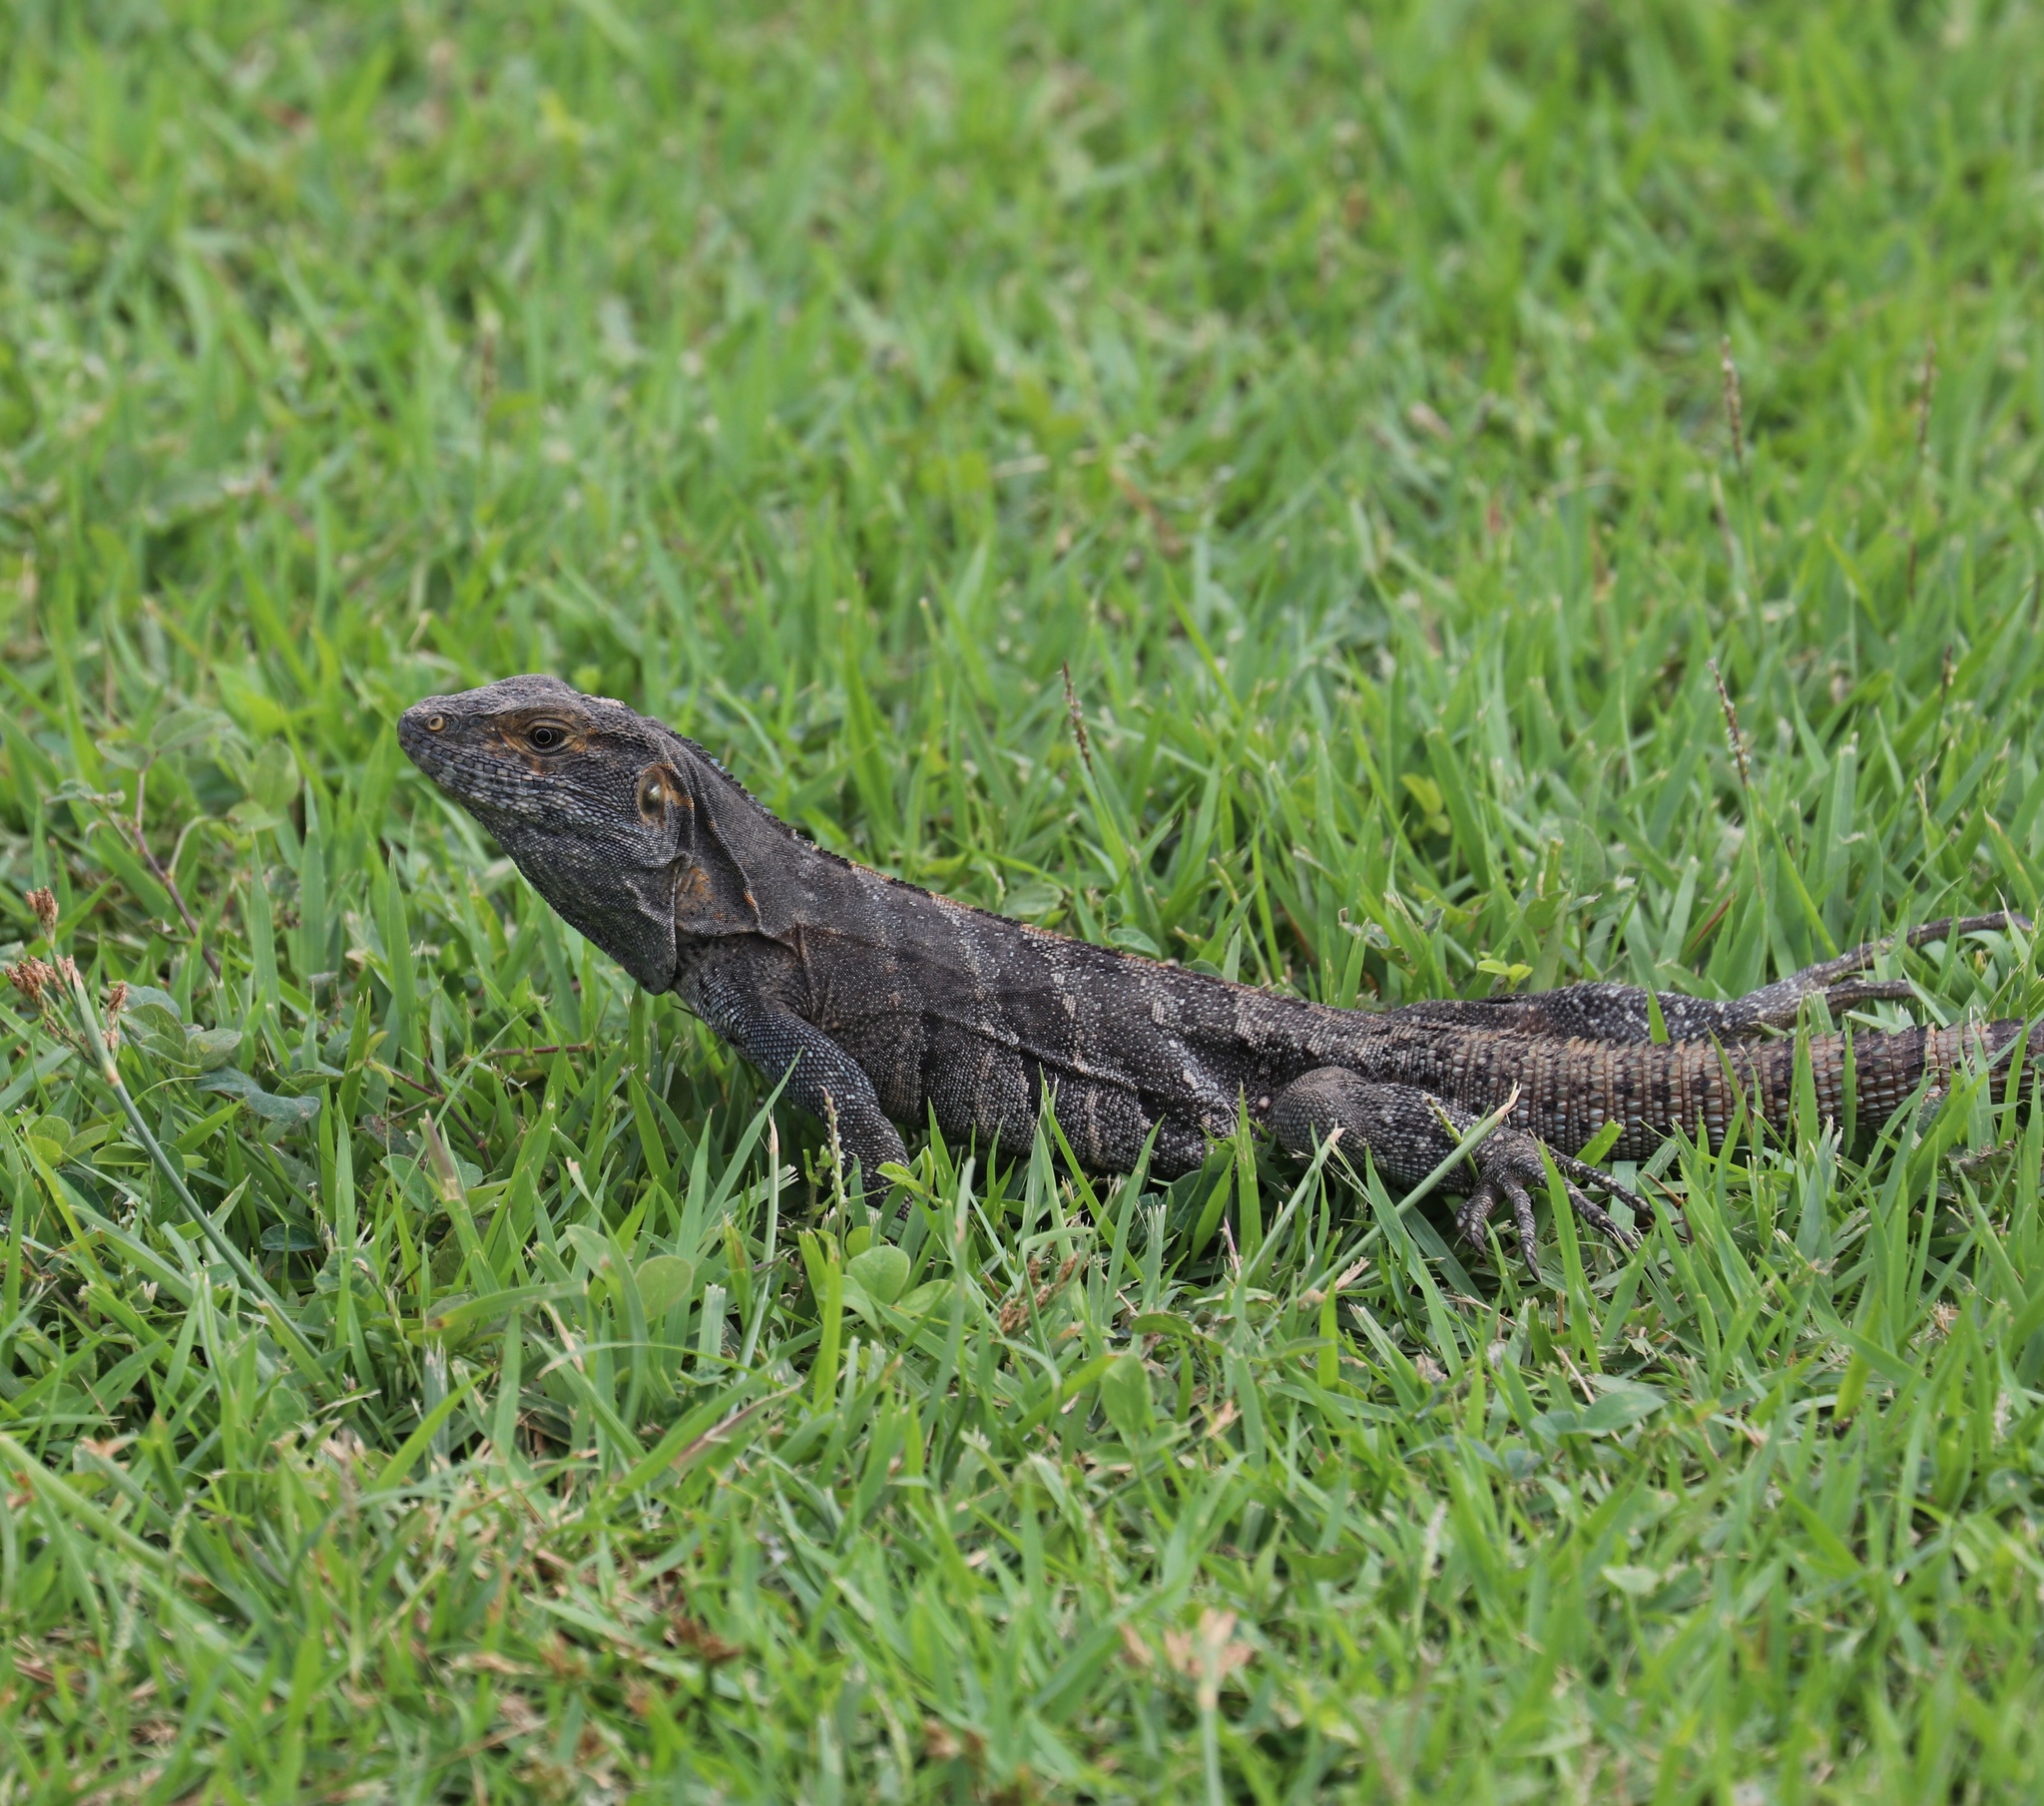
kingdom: Animalia
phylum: Chordata
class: Squamata
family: Iguanidae
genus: Ctenosaura
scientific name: Ctenosaura similis
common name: Black spiny-tailed iguana
